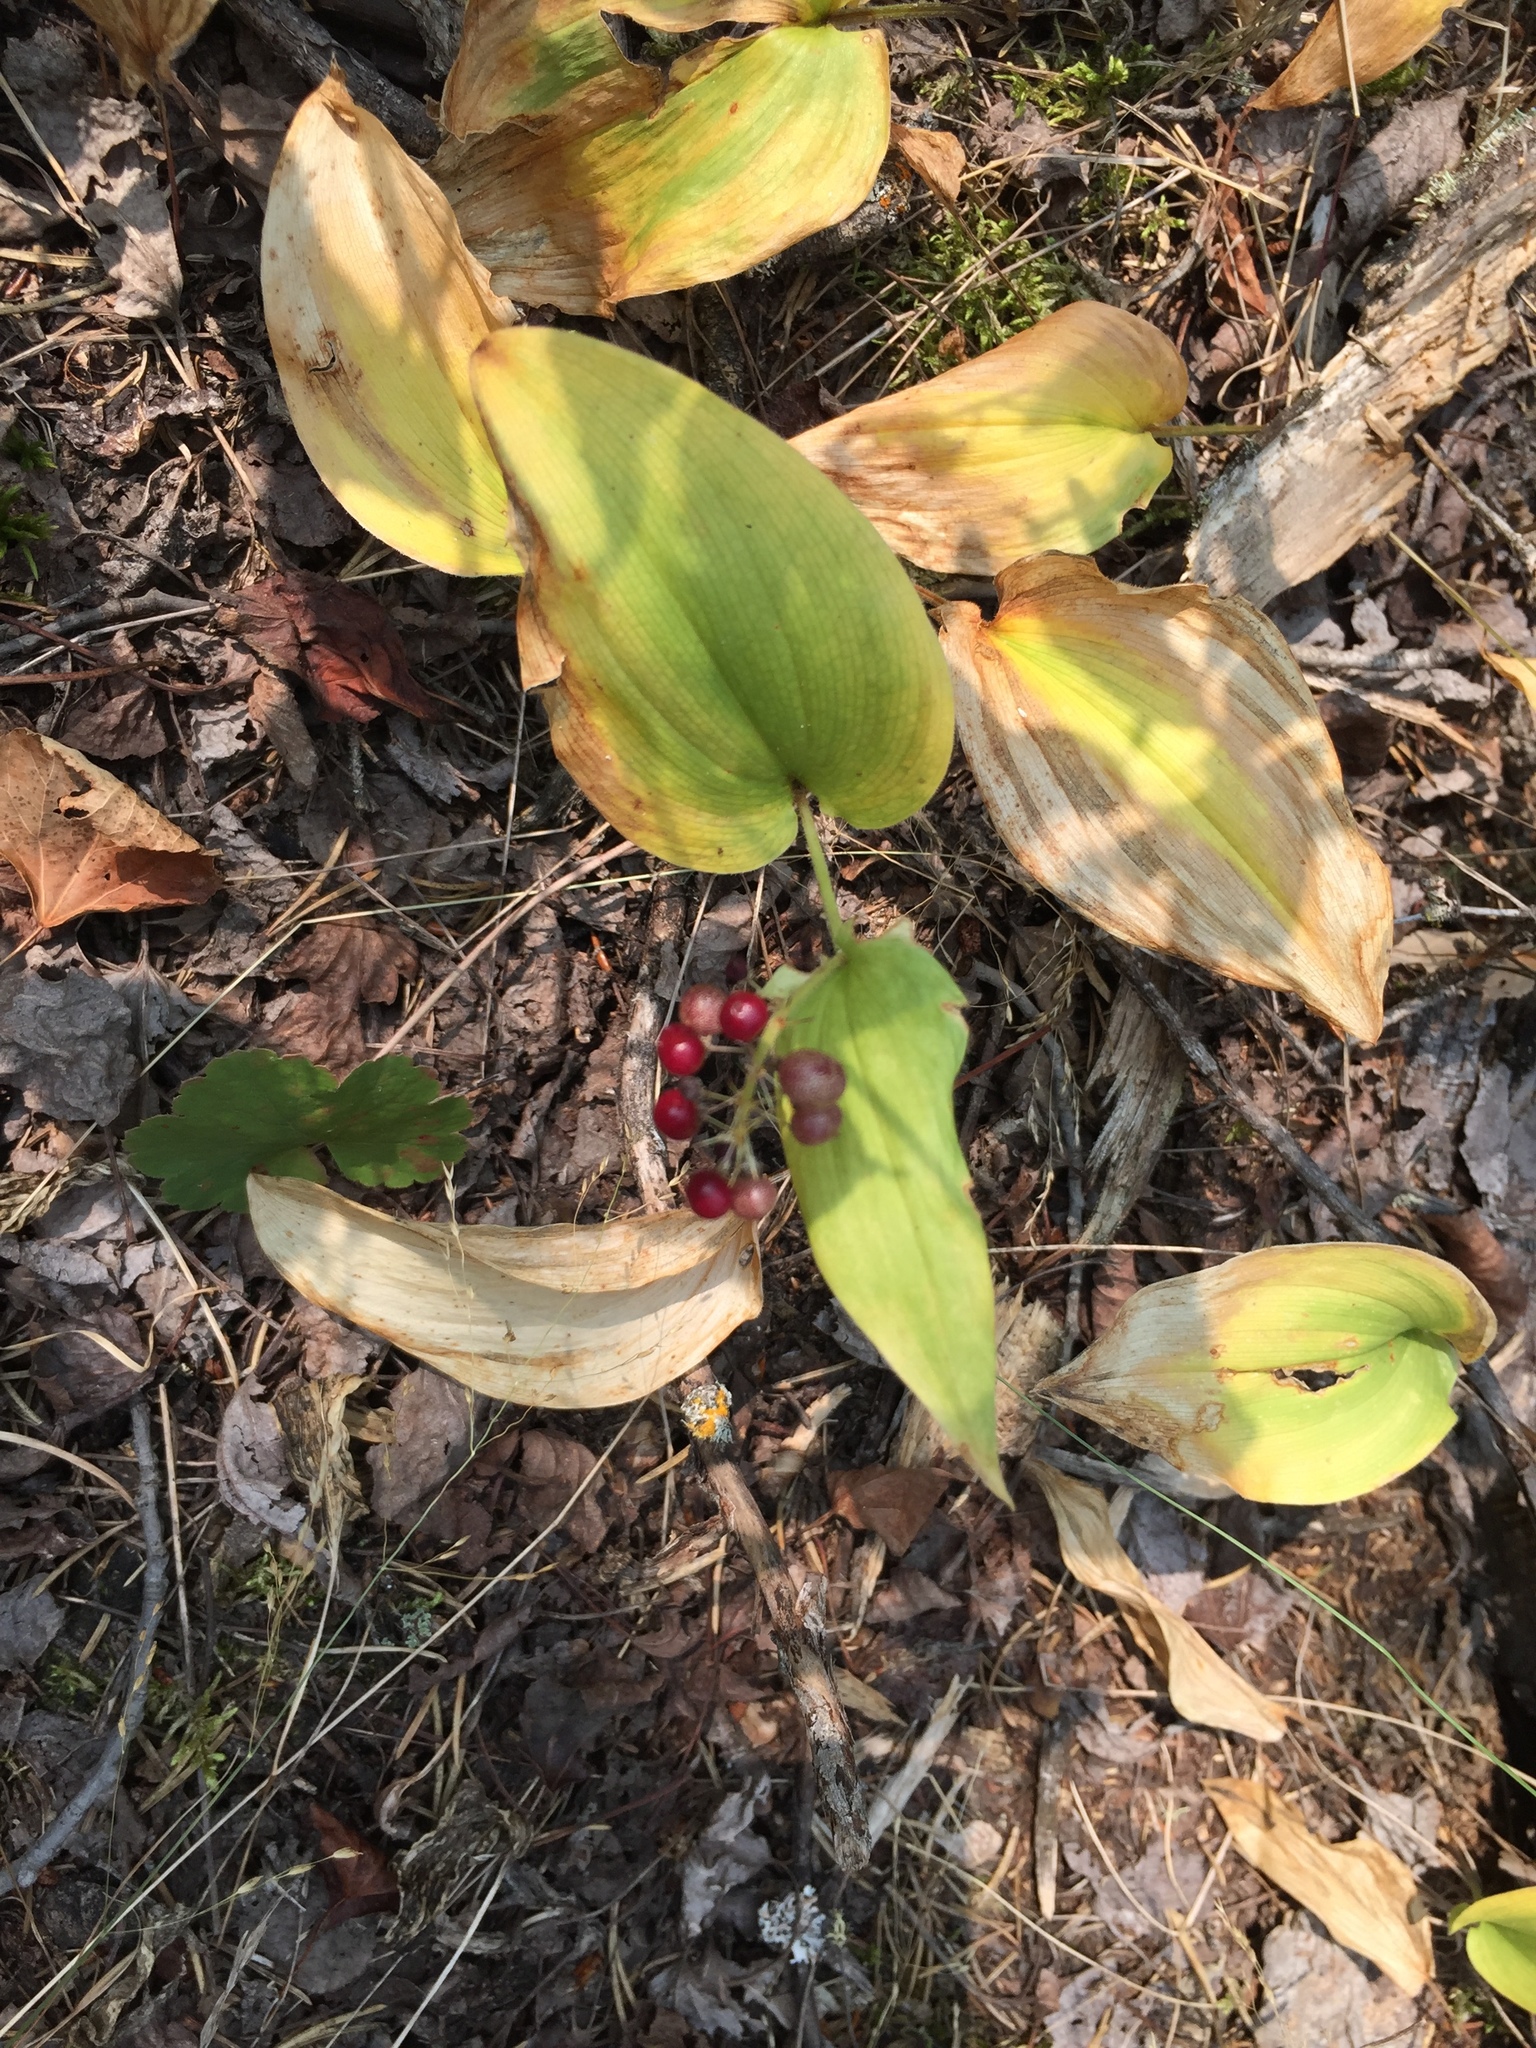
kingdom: Plantae
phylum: Tracheophyta
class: Liliopsida
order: Asparagales
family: Asparagaceae
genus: Maianthemum
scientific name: Maianthemum canadense
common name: False lily-of-the-valley
